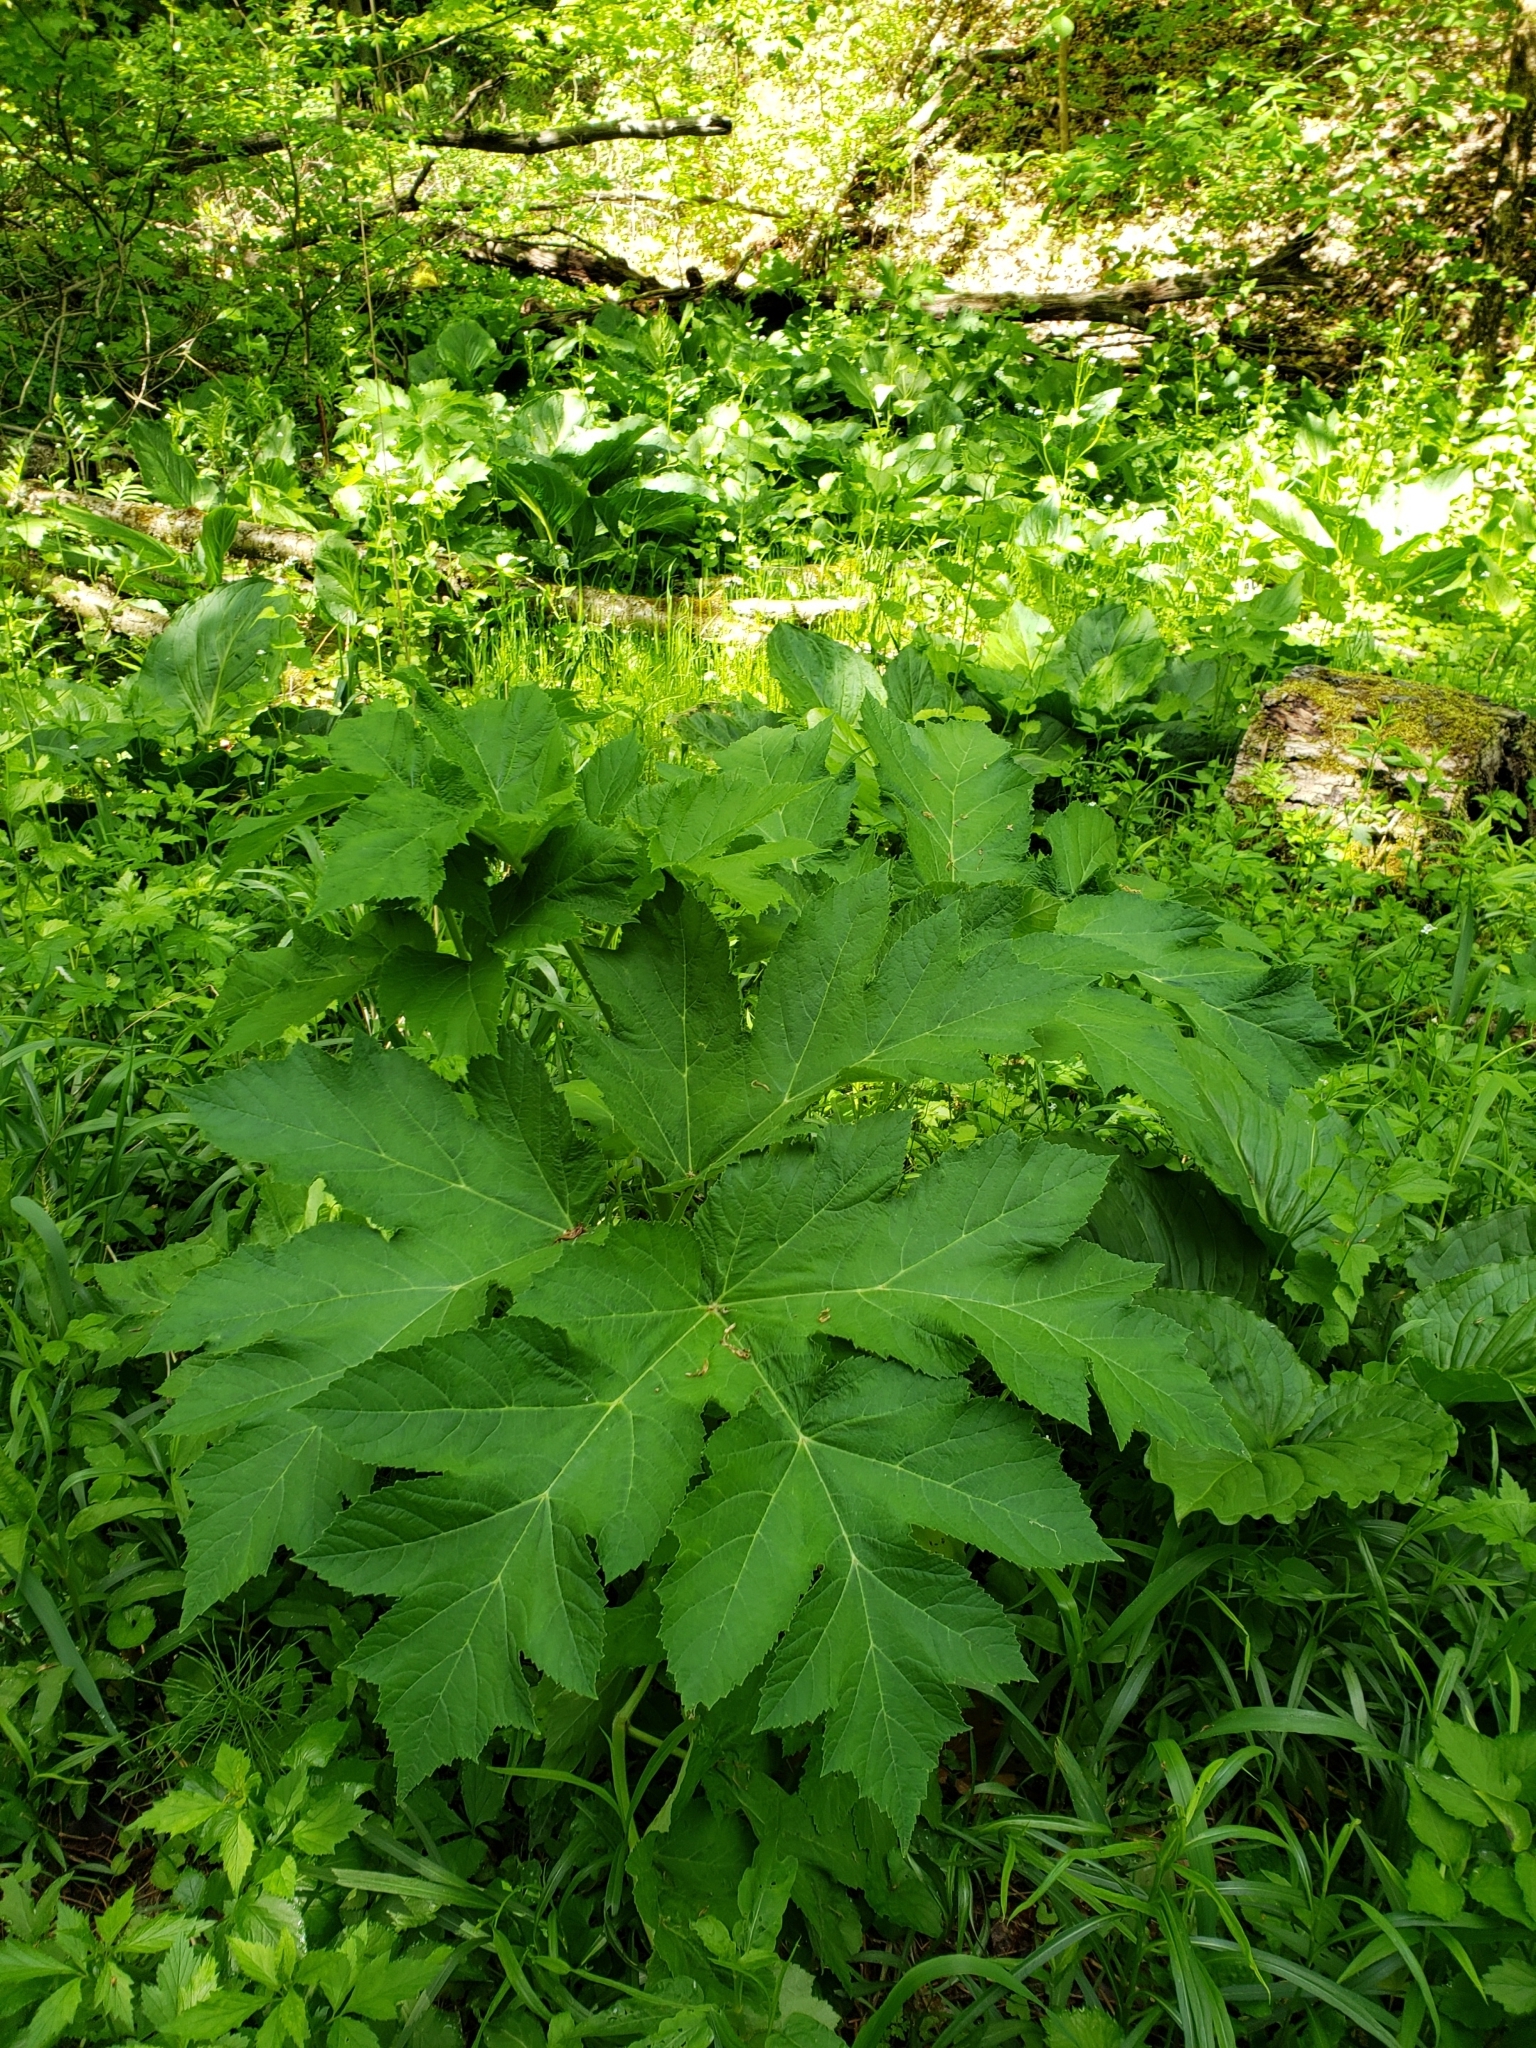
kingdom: Plantae
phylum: Tracheophyta
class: Magnoliopsida
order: Apiales
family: Apiaceae
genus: Heracleum
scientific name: Heracleum maximum
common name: American cow parsnip
